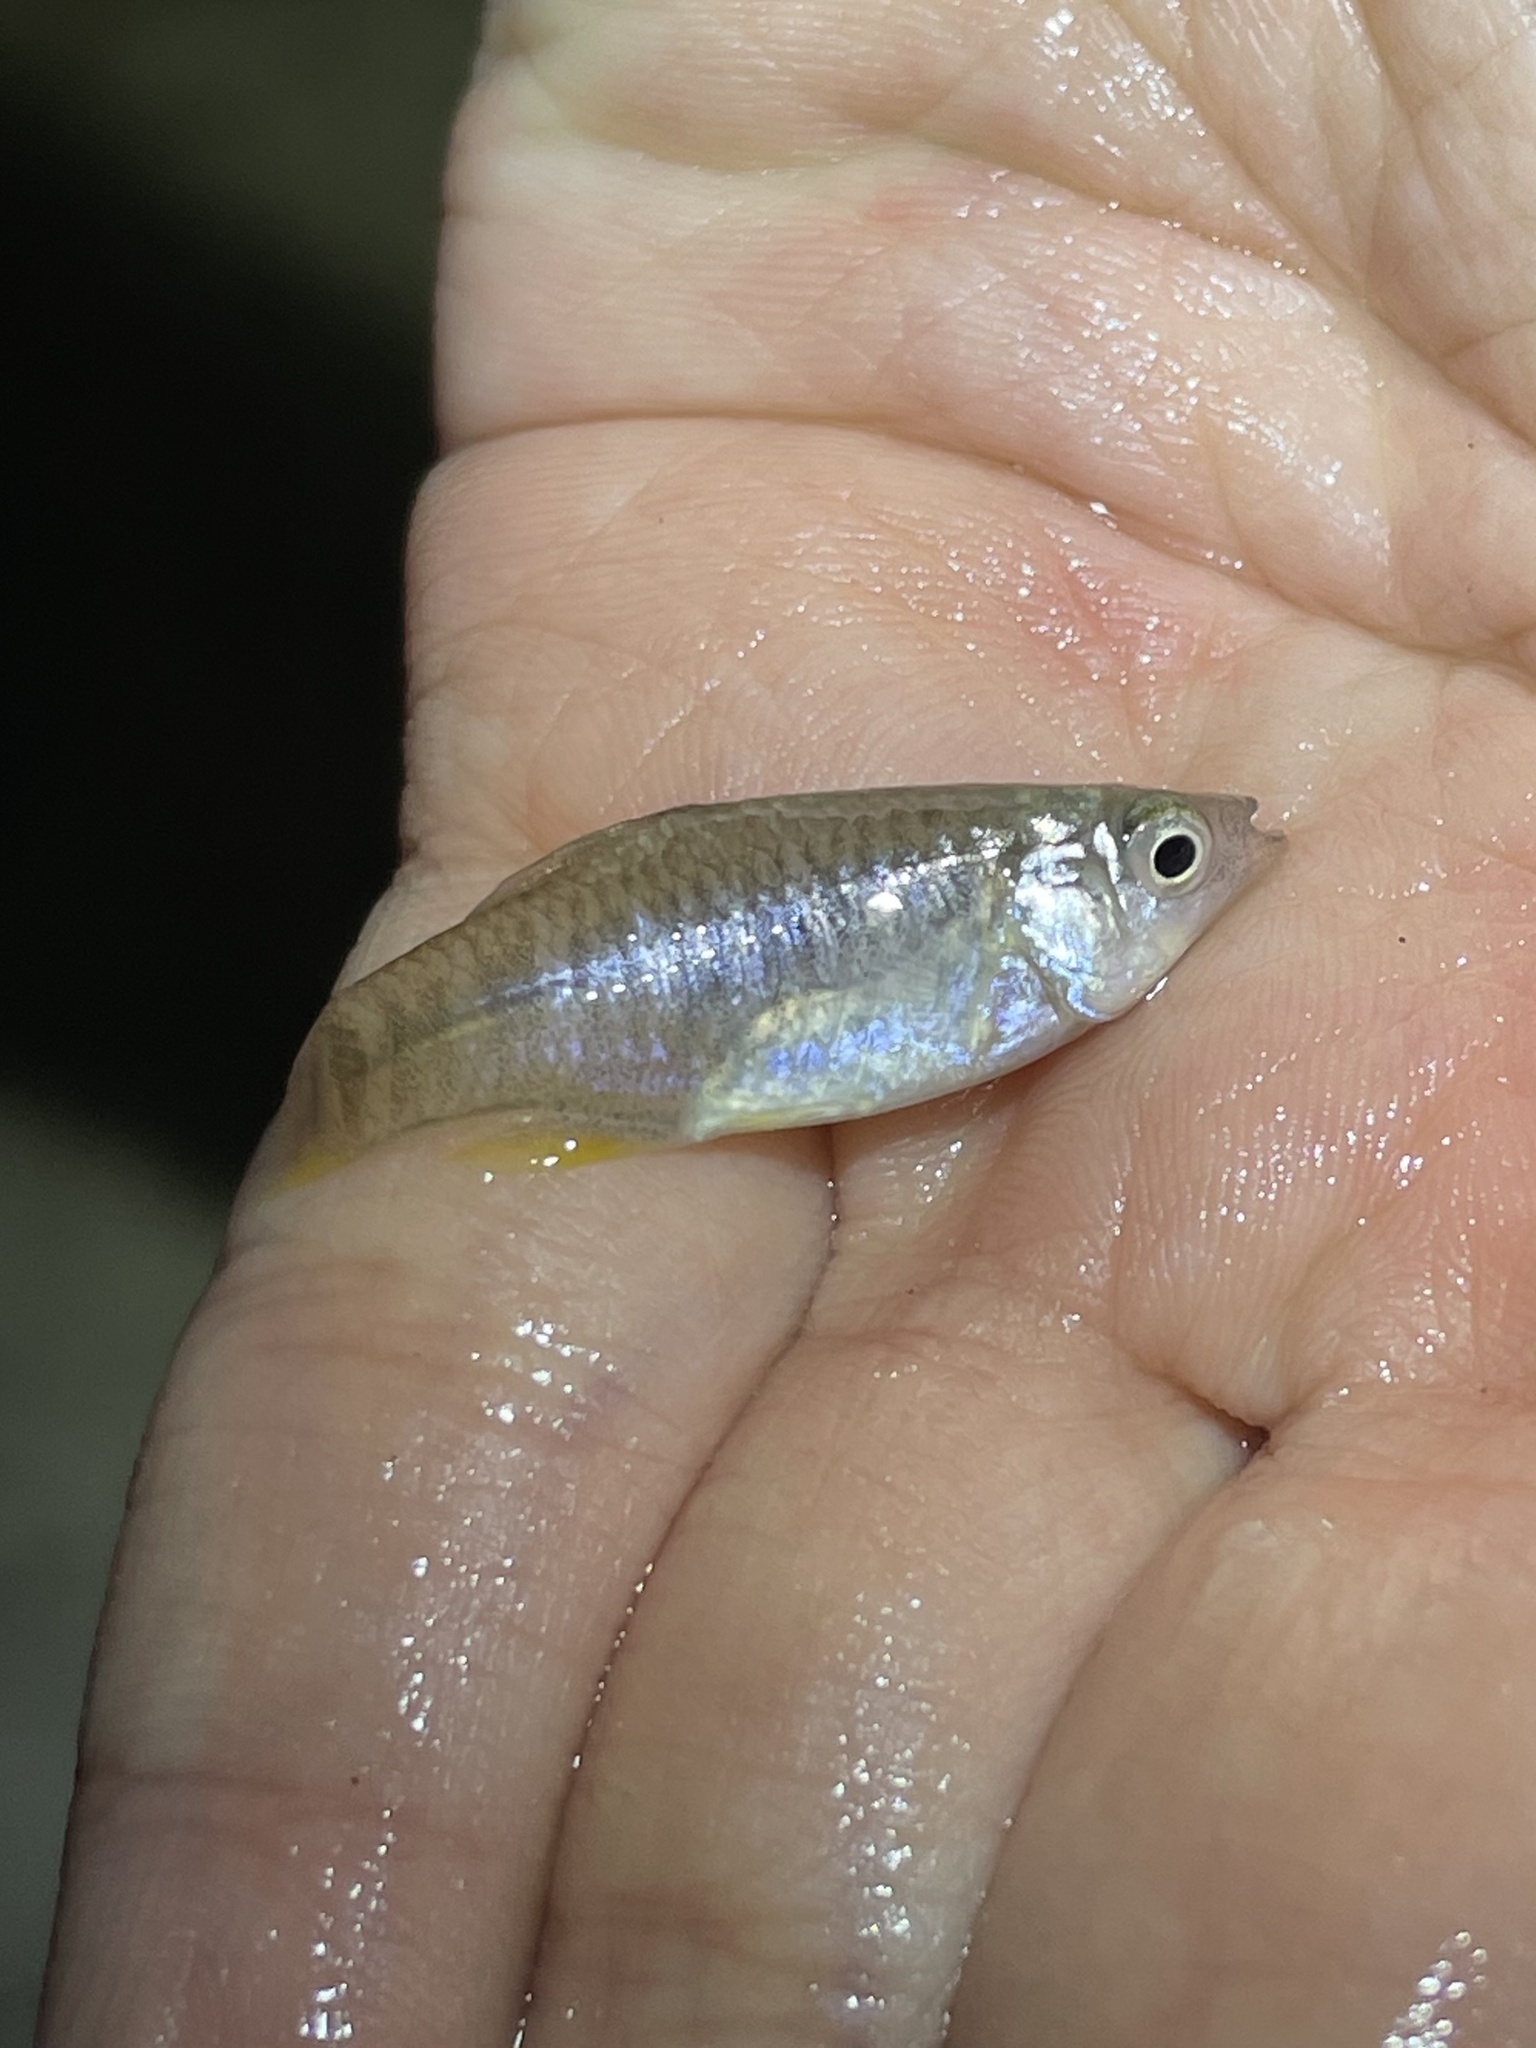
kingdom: Animalia
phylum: Chordata
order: Cyprinodontiformes
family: Fundulidae
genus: Fundulus
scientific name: Fundulus grandis
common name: Gulf killifish
